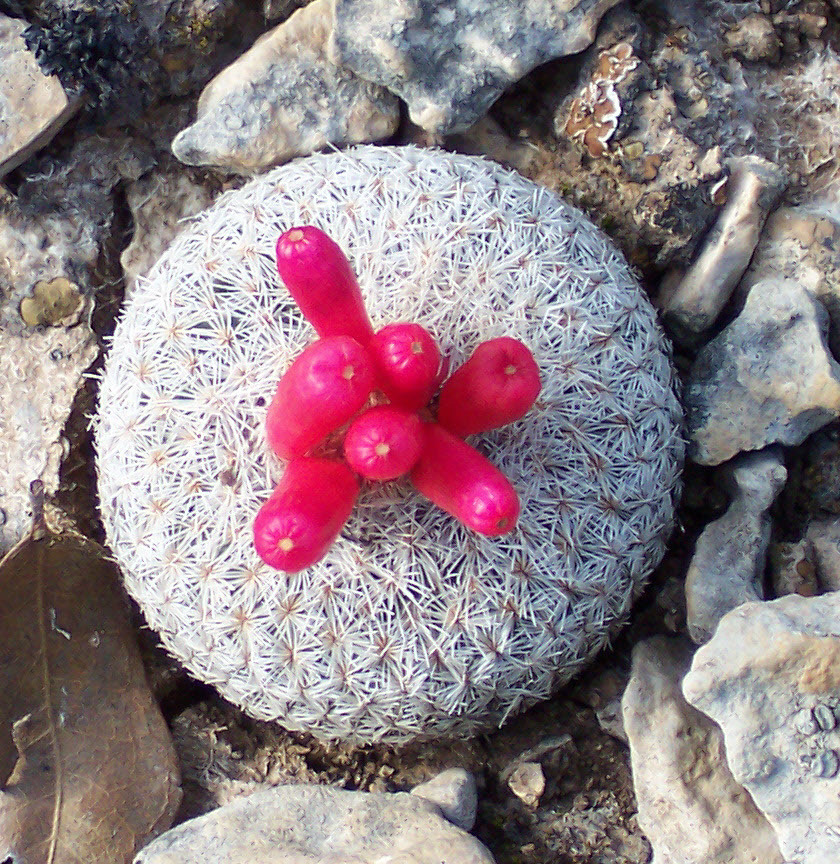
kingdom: Plantae
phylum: Tracheophyta
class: Magnoliopsida
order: Caryophyllales
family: Cactaceae
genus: Epithelantha
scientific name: Epithelantha micromeris
